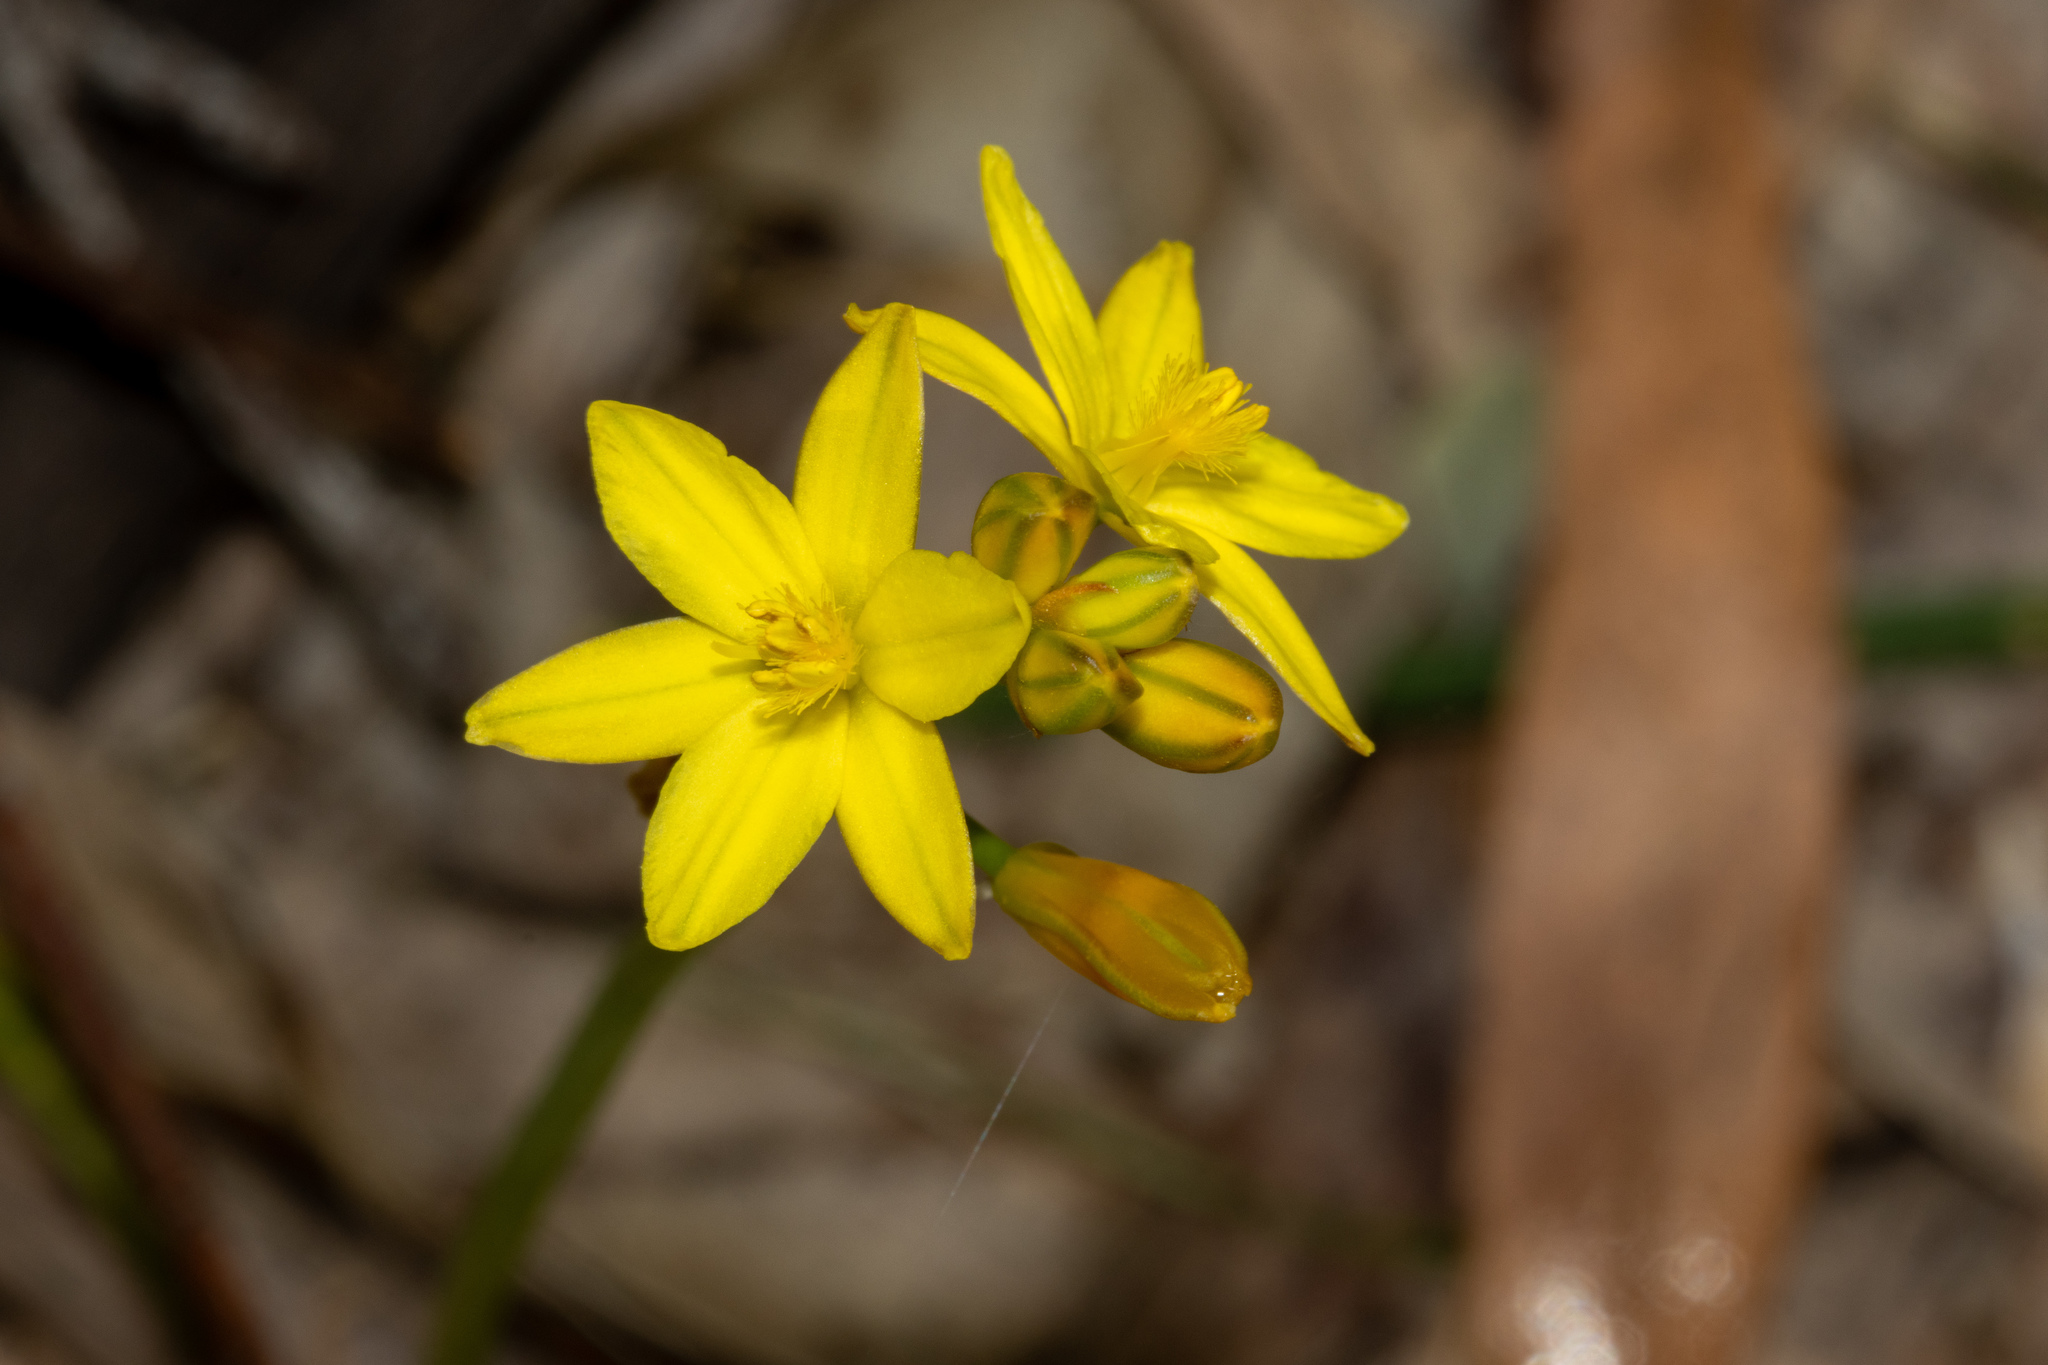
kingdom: Plantae
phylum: Tracheophyta
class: Liliopsida
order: Asparagales
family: Asphodelaceae
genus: Bulbine
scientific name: Bulbine bulbosa
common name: Golden-lily
